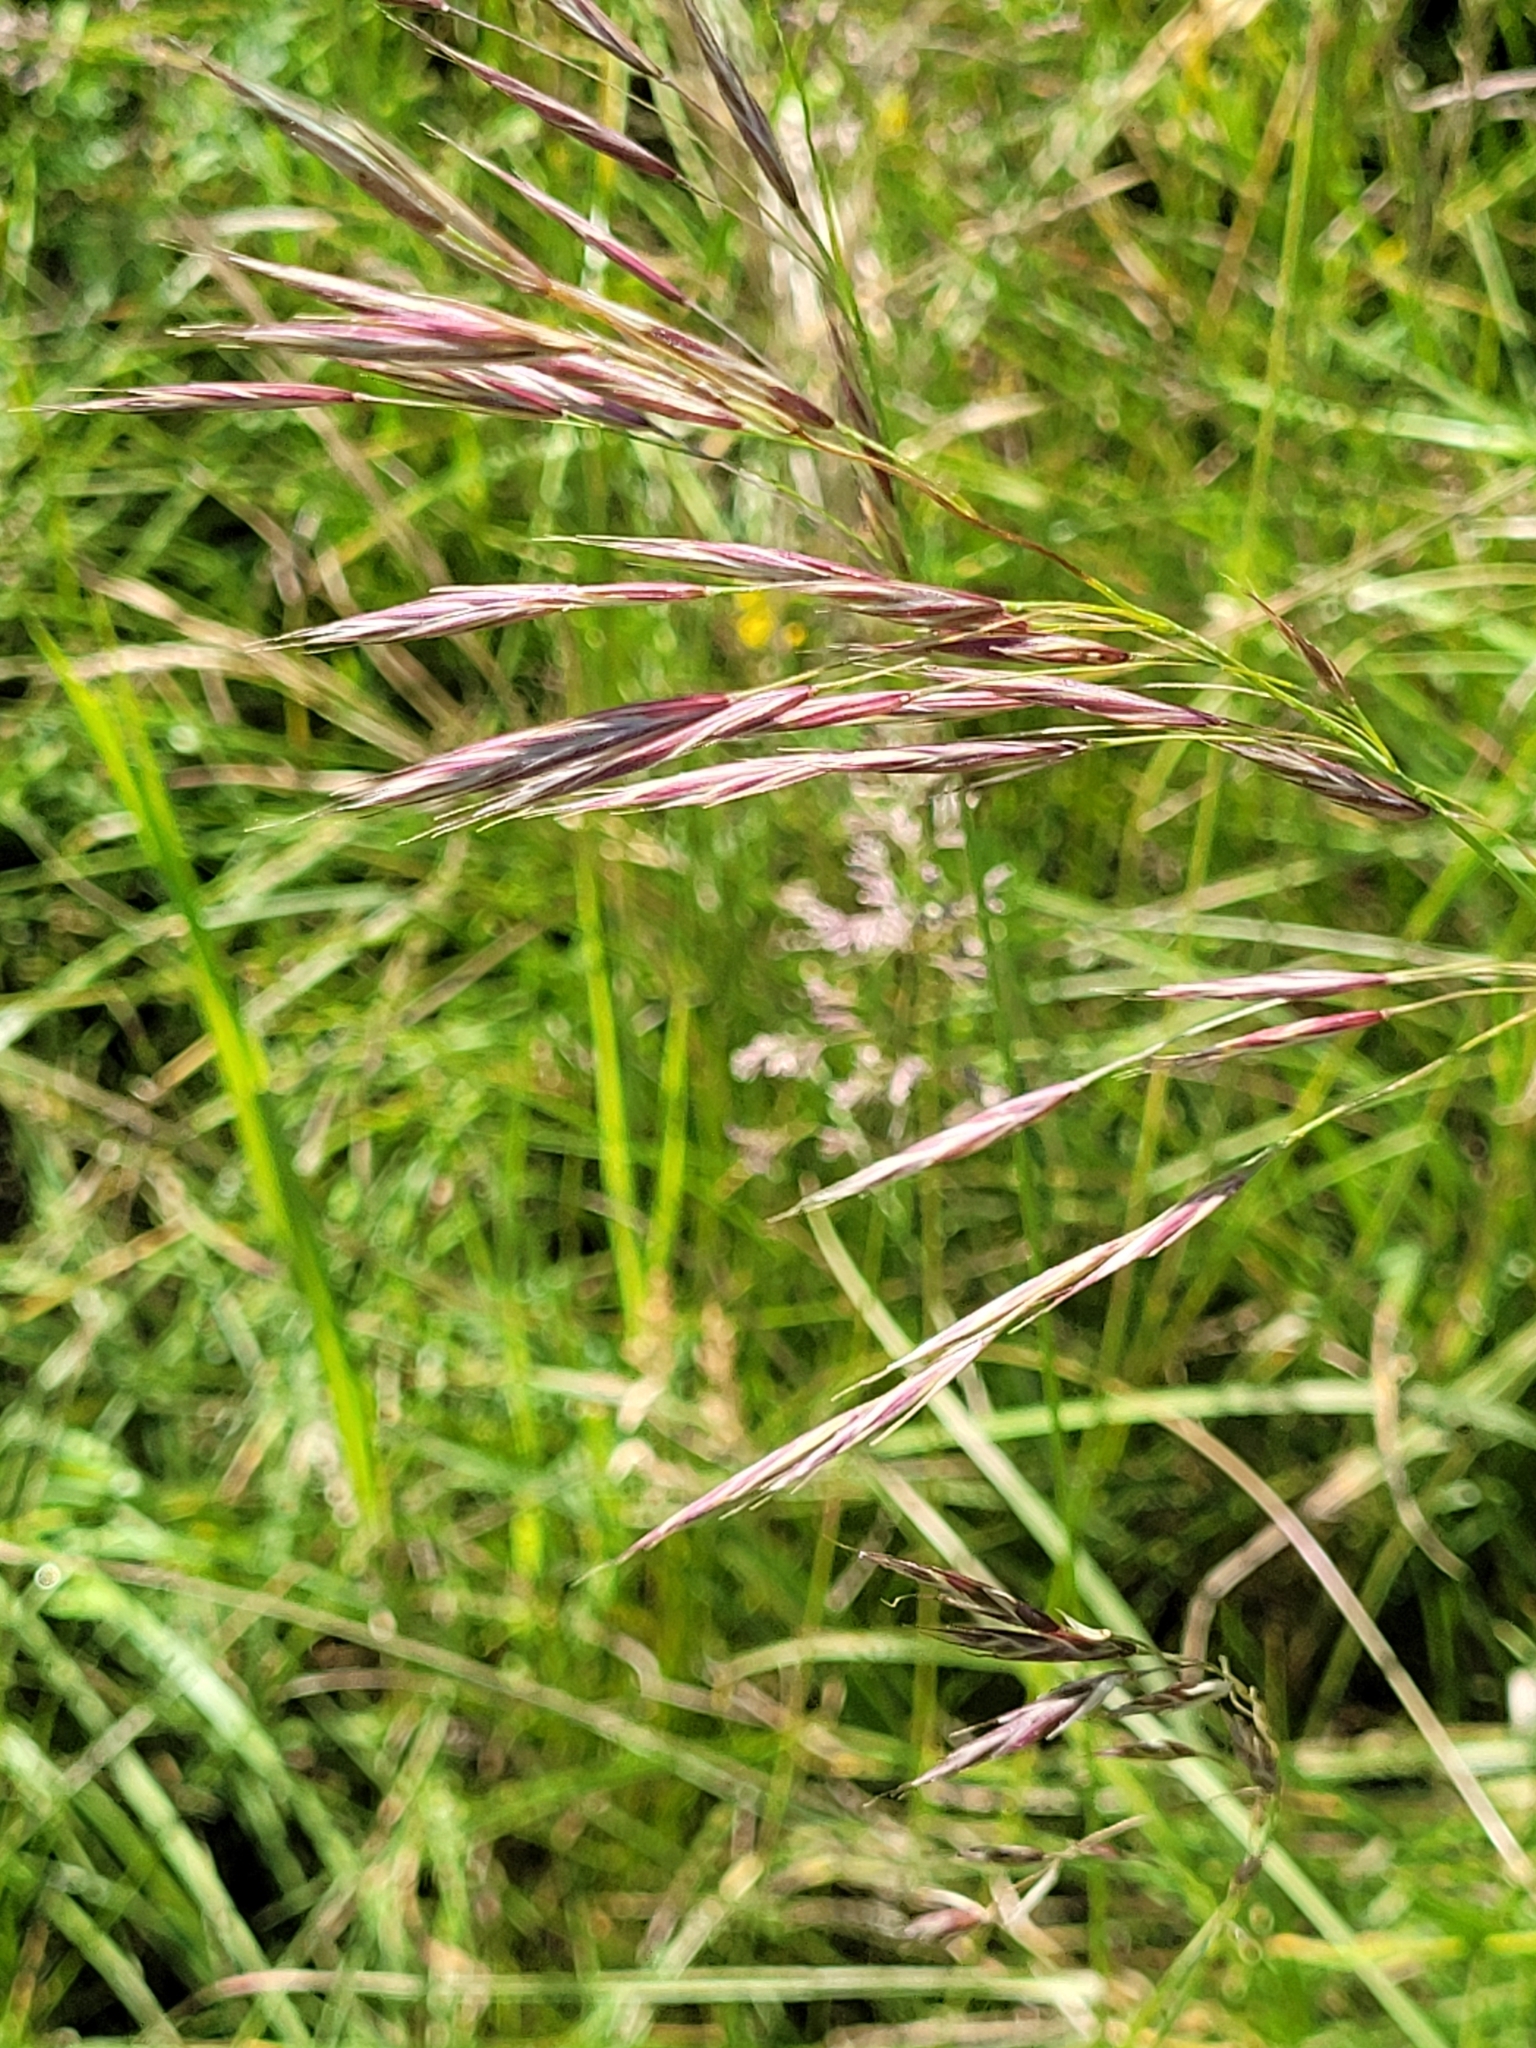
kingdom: Plantae
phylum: Tracheophyta
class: Liliopsida
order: Poales
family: Poaceae
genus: Bromus
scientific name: Bromus erectus
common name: Erect brome
